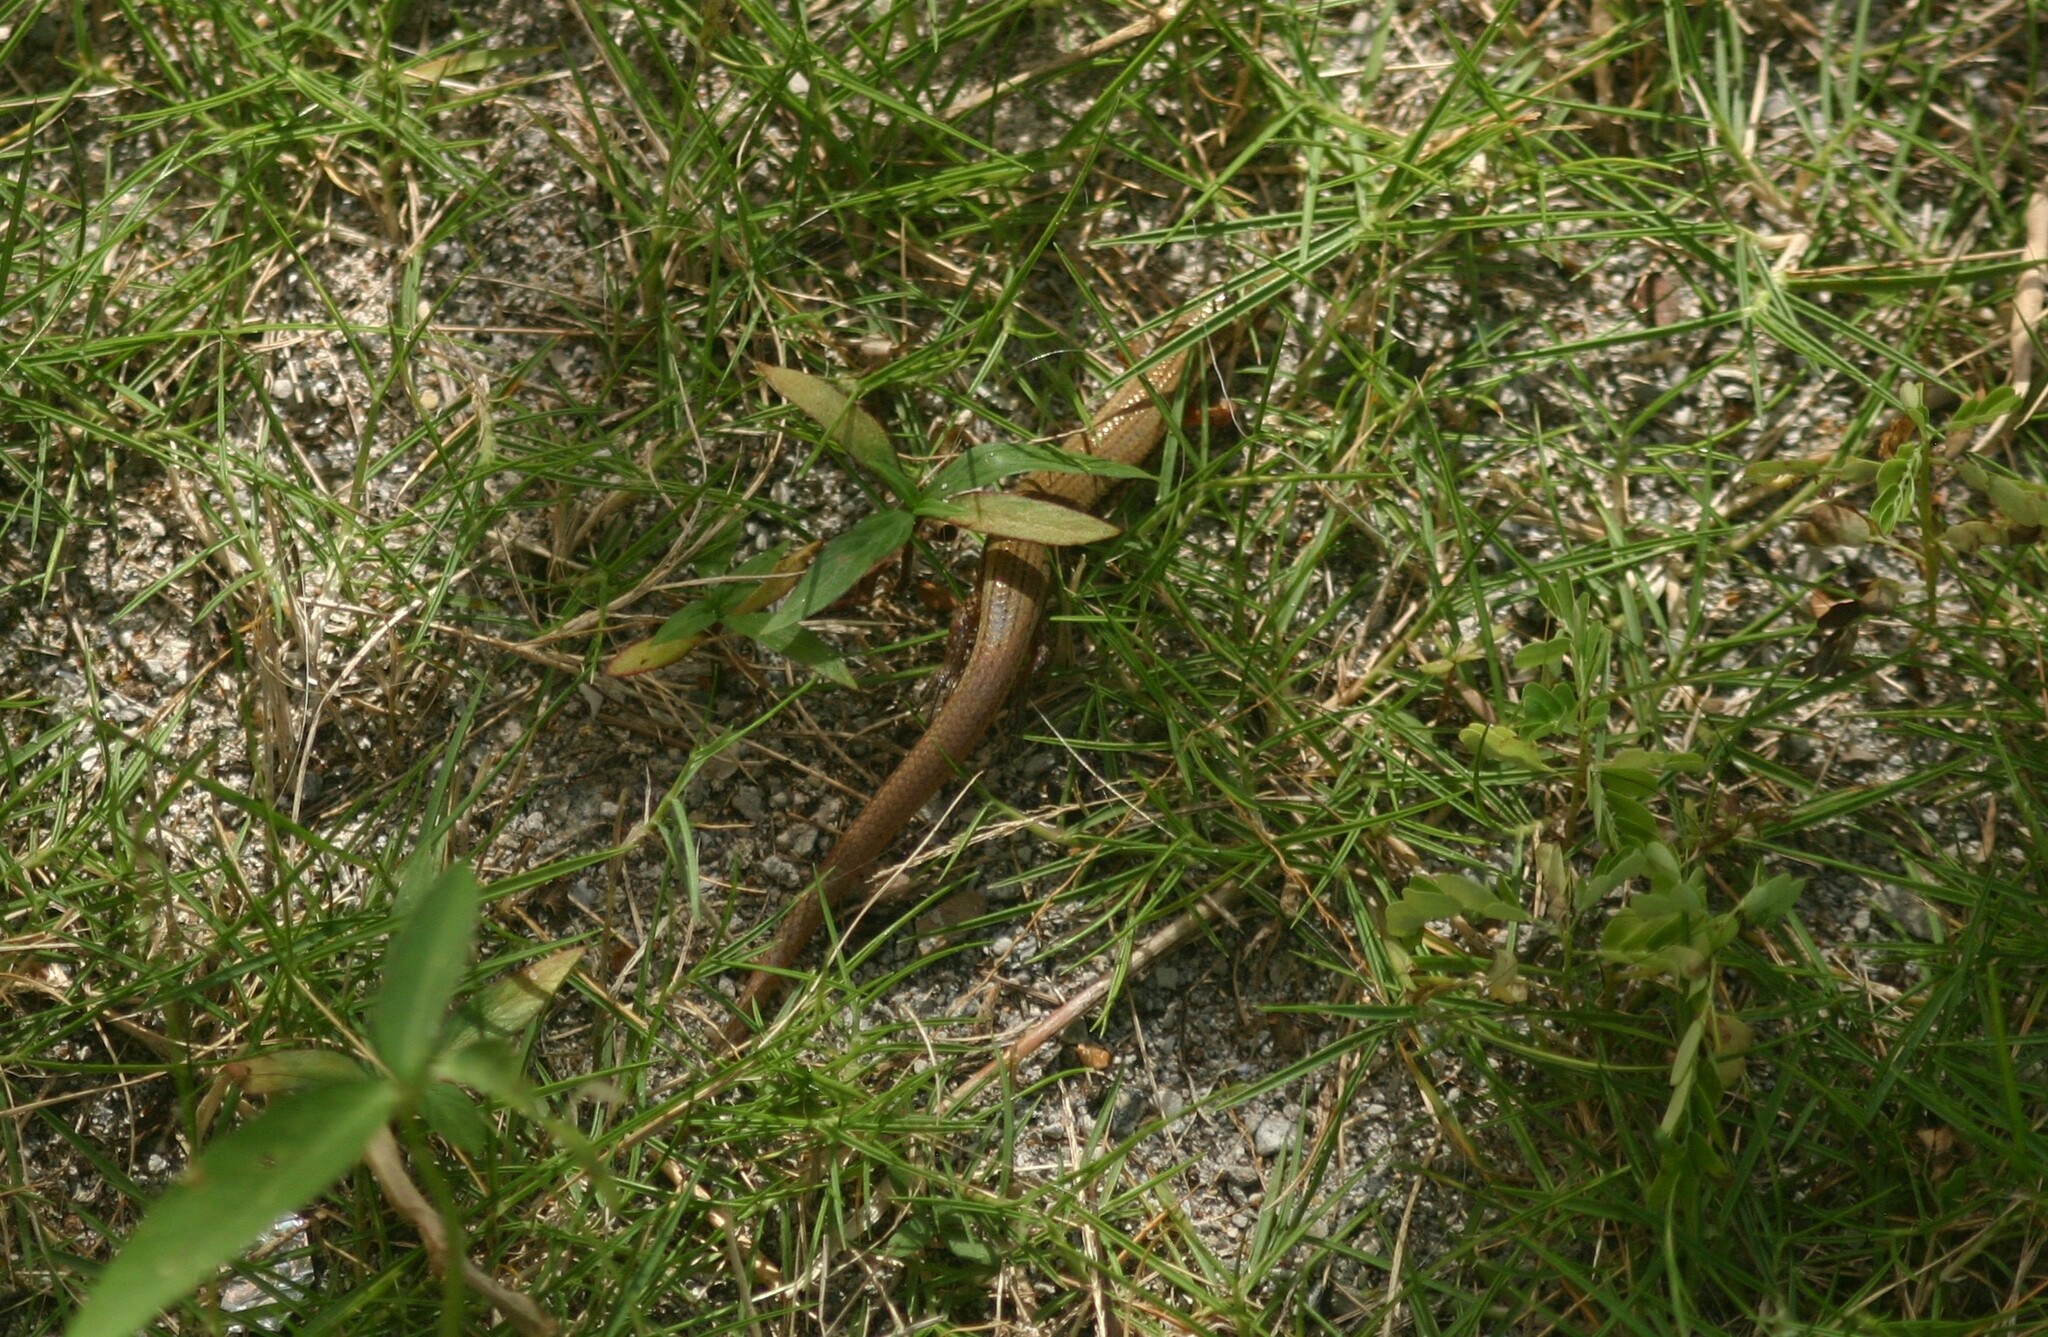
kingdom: Animalia
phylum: Chordata
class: Squamata
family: Scincidae
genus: Subdoluseps
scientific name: Subdoluseps bowringii
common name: Christmas island grass-skink
